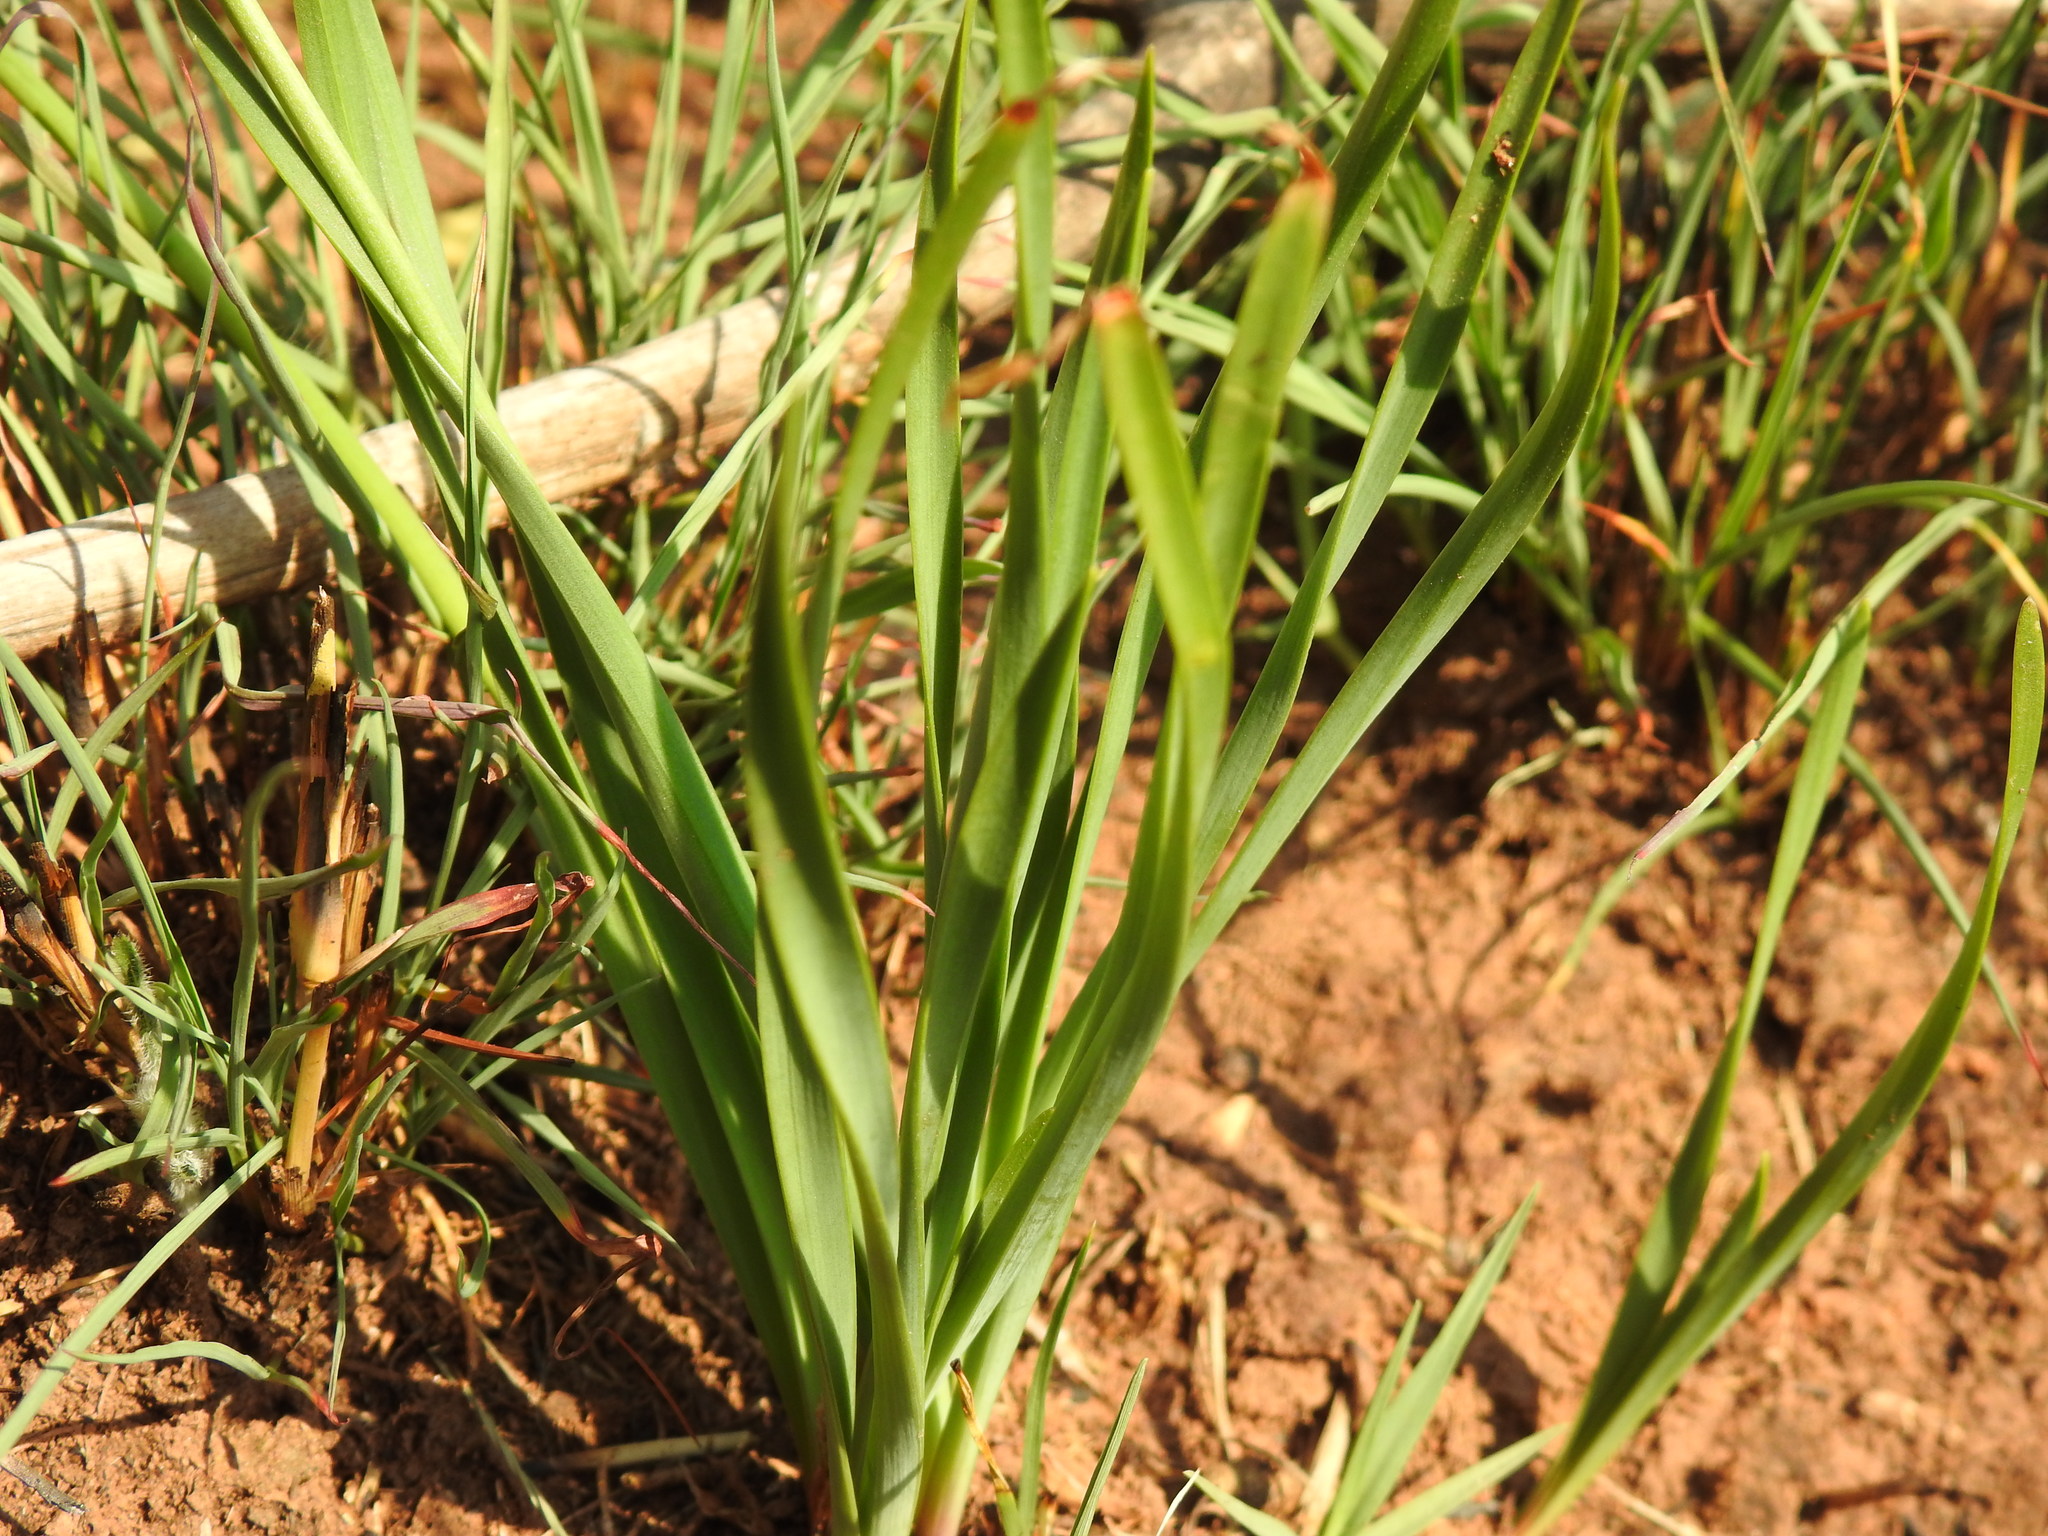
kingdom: Plantae
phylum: Tracheophyta
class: Liliopsida
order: Asparagales
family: Amaryllidaceae
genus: Tulbaghia
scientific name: Tulbaghia acutiloba
